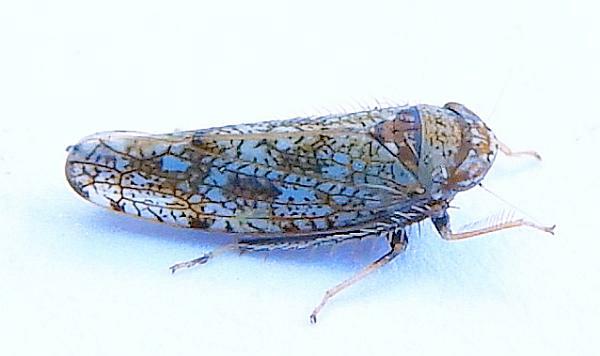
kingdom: Animalia
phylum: Arthropoda
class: Insecta
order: Hemiptera
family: Cicadellidae
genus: Orientus
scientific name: Orientus ishidae
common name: Japanese leafhopper
